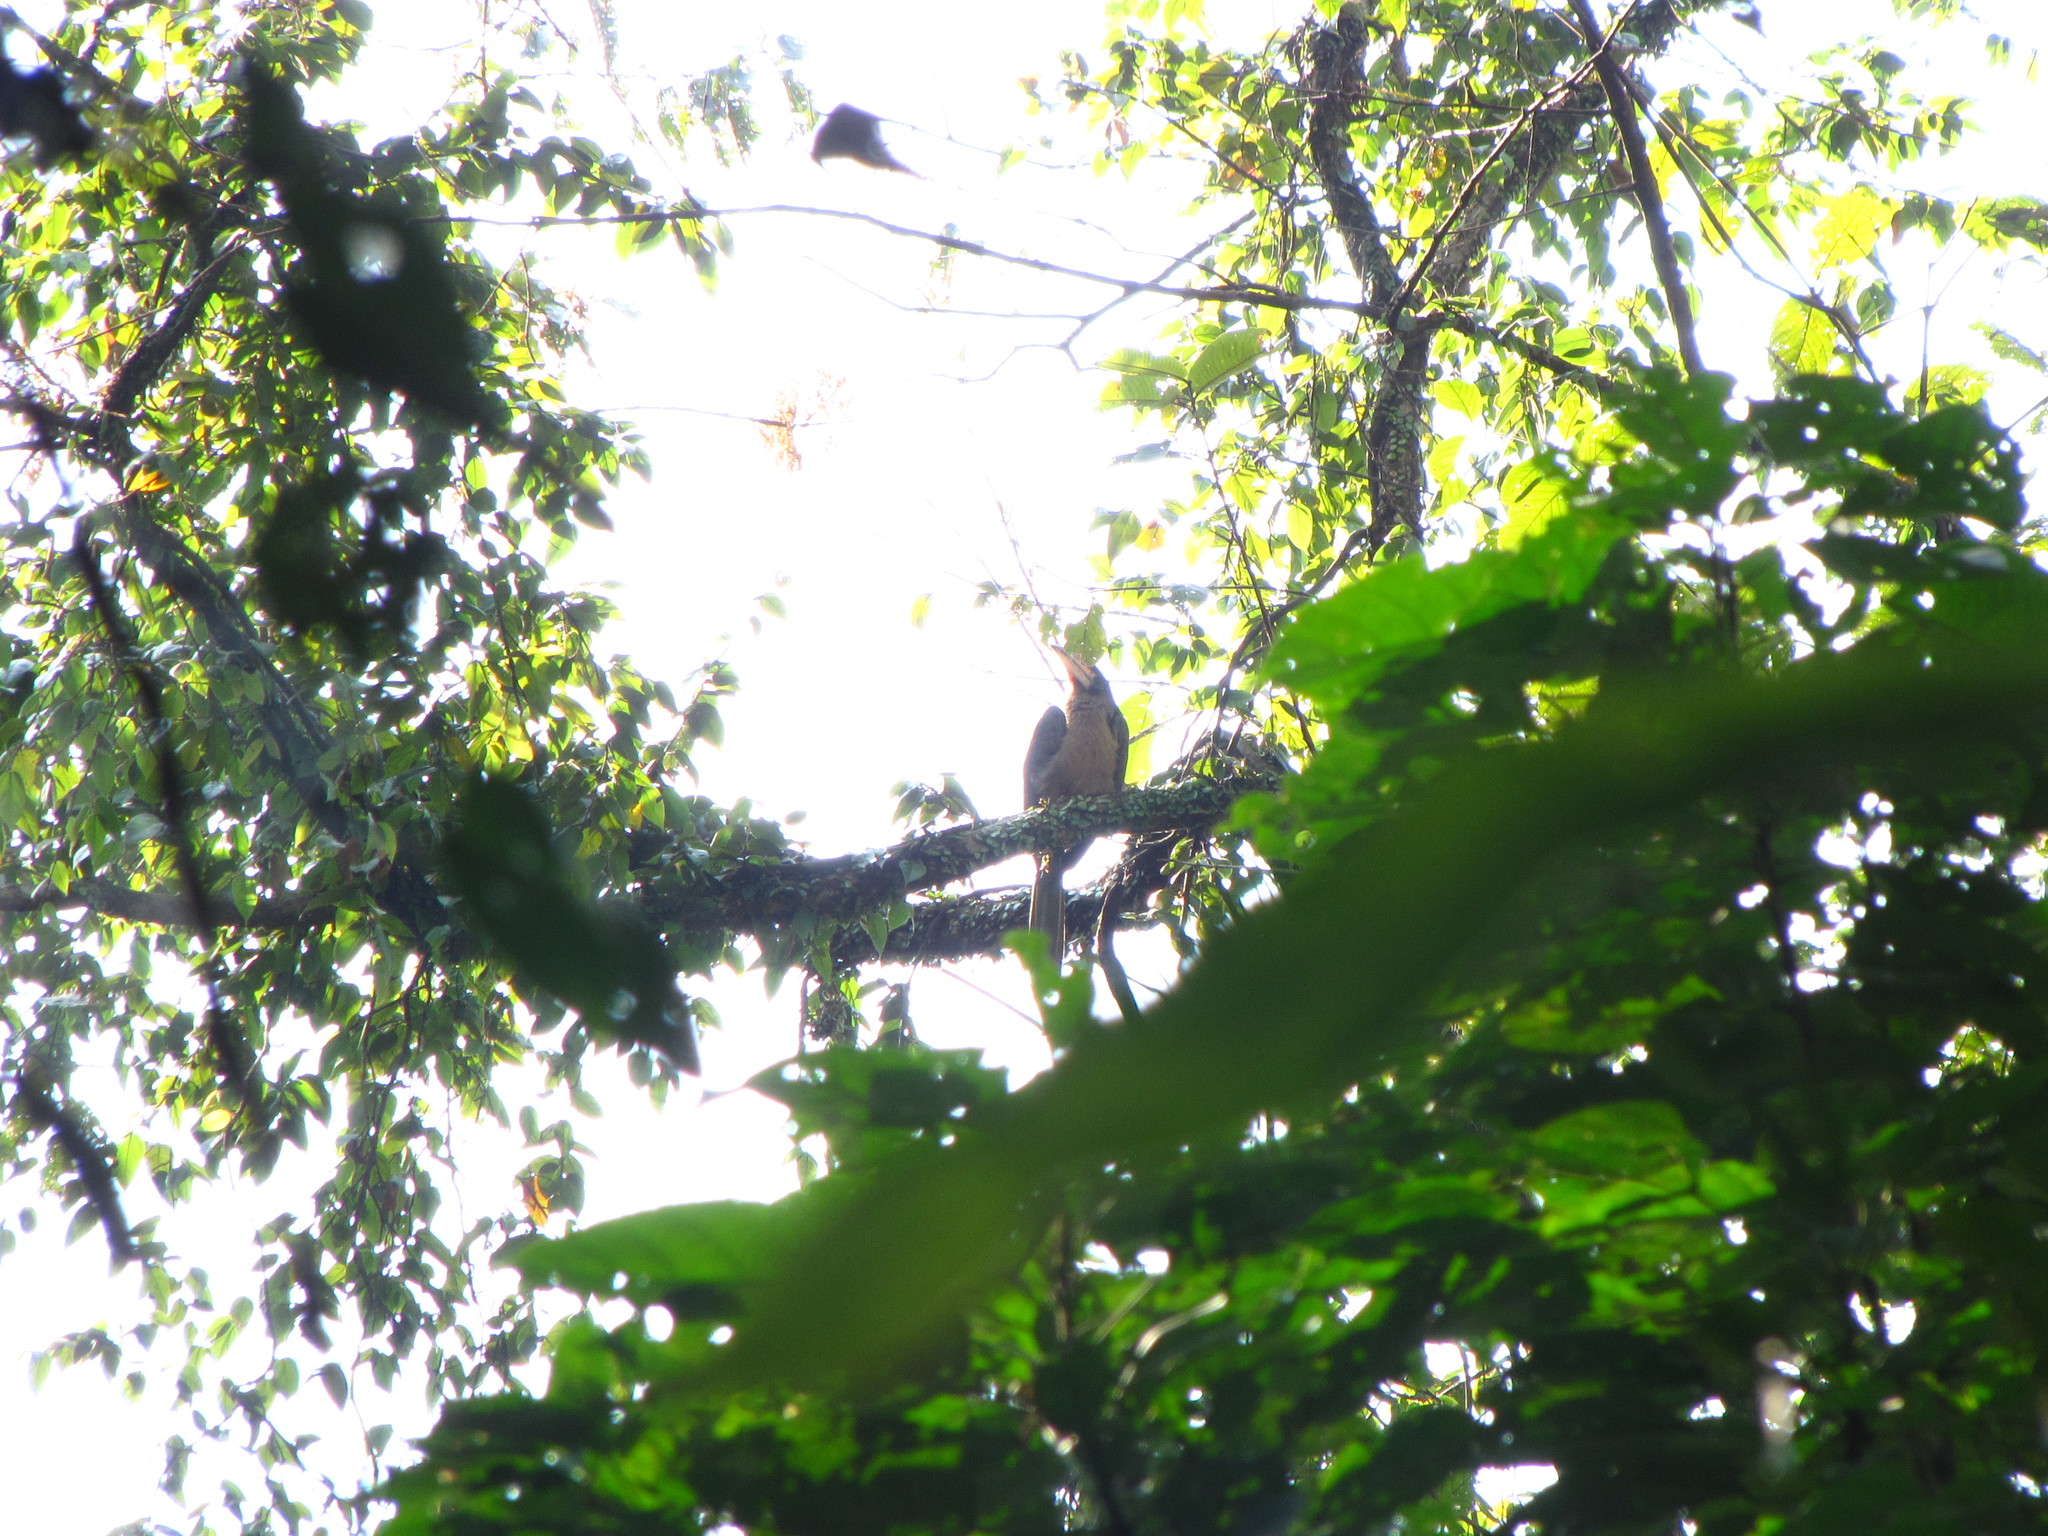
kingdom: Animalia
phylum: Chordata
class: Aves
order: Bucerotiformes
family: Bucerotidae
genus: Anorrhinus
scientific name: Anorrhinus austeni
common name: Austen's brown hornbill
